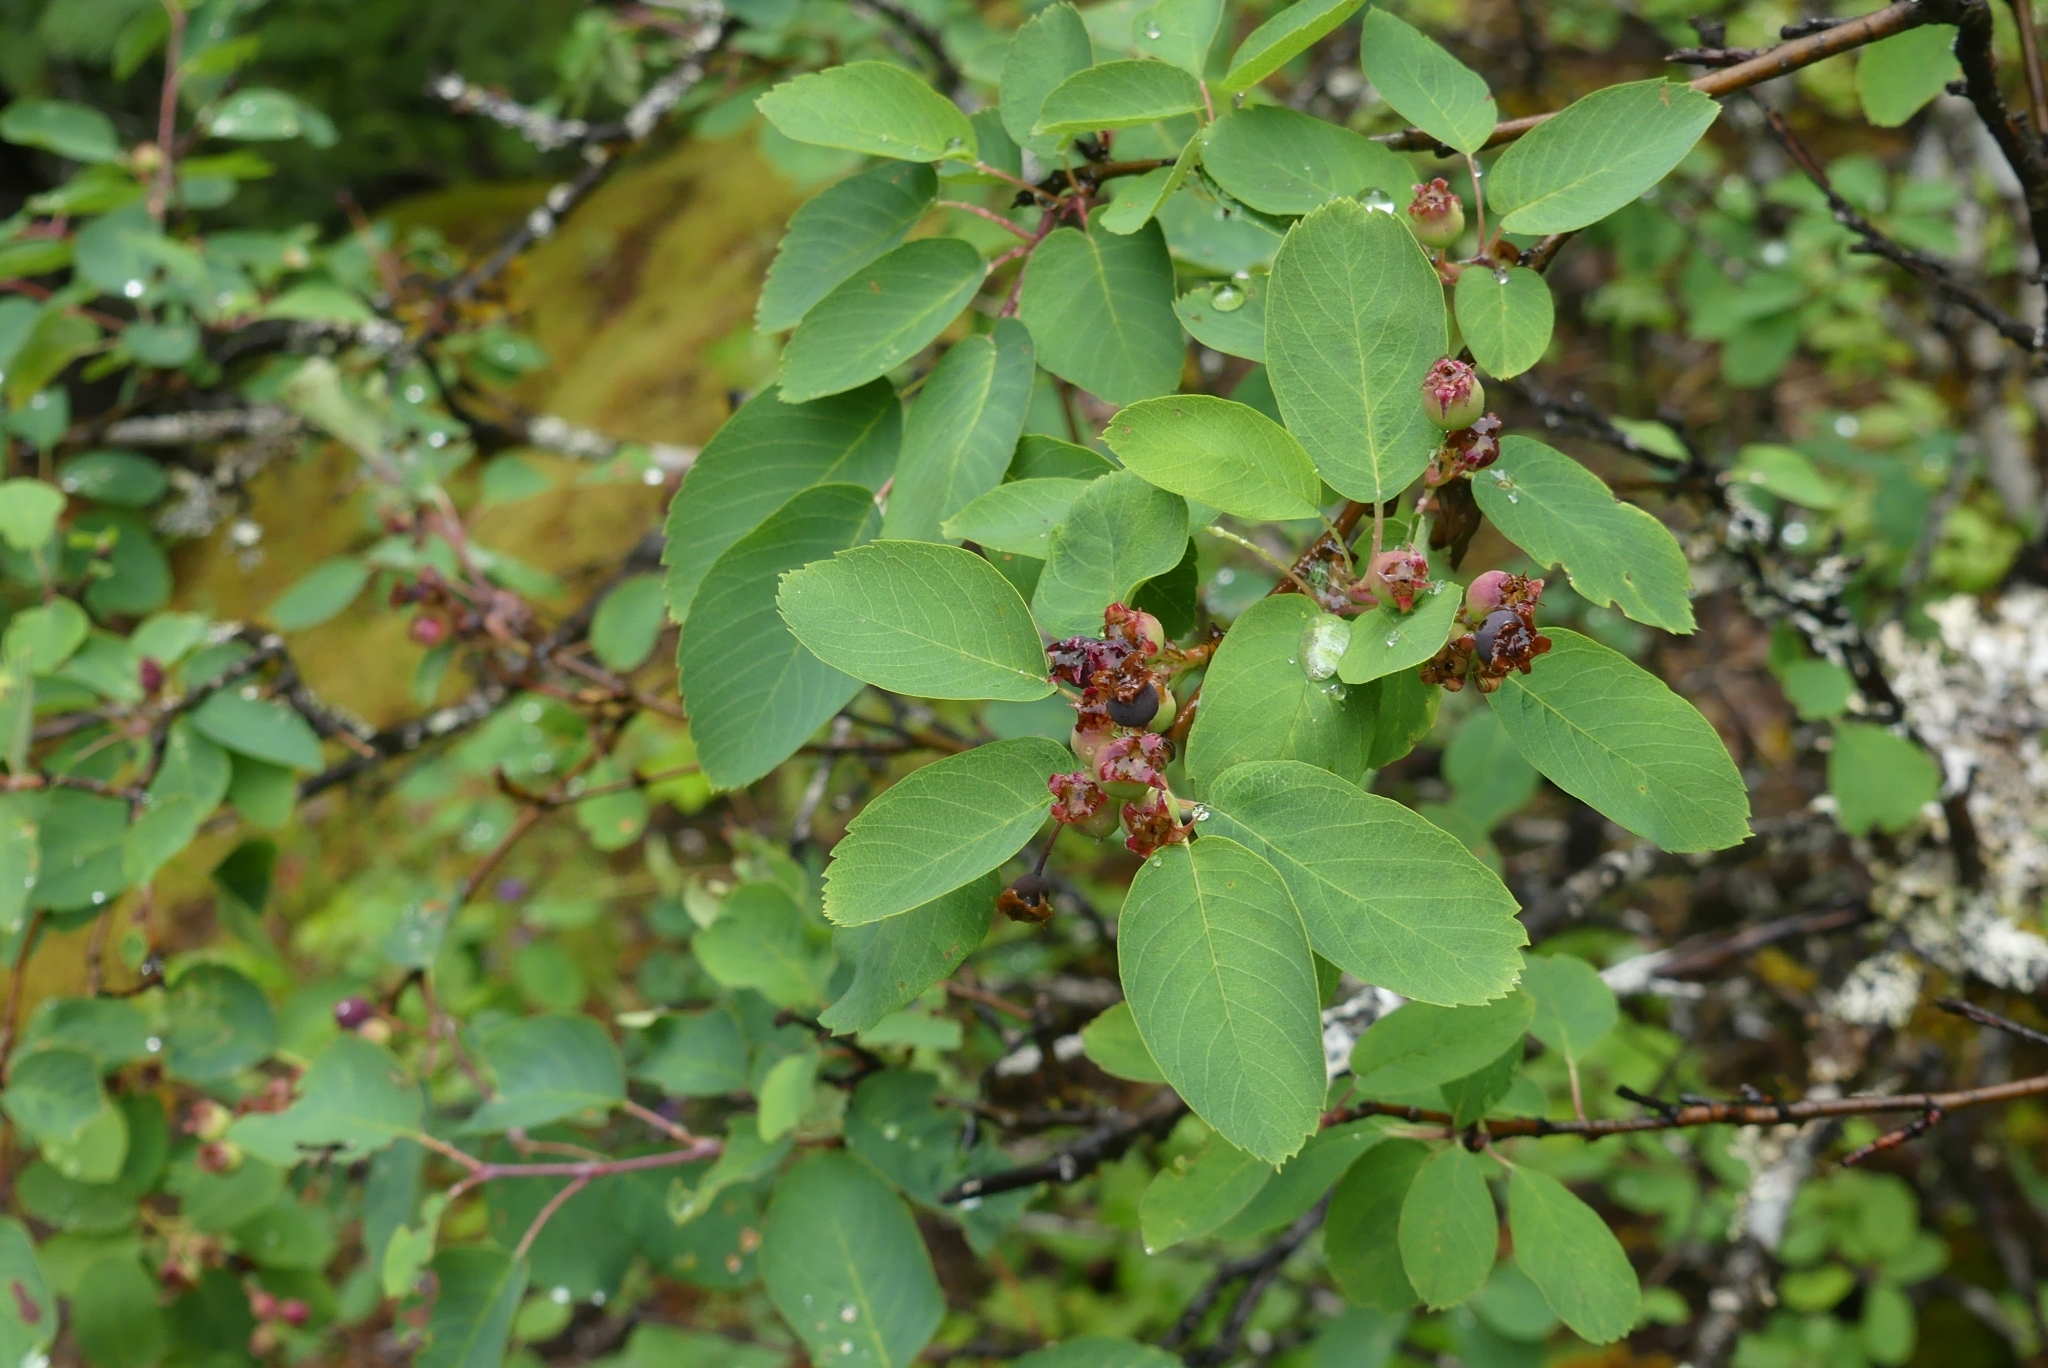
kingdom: Plantae
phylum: Tracheophyta
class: Magnoliopsida
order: Rosales
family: Rosaceae
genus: Amelanchier
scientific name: Amelanchier alnifolia
